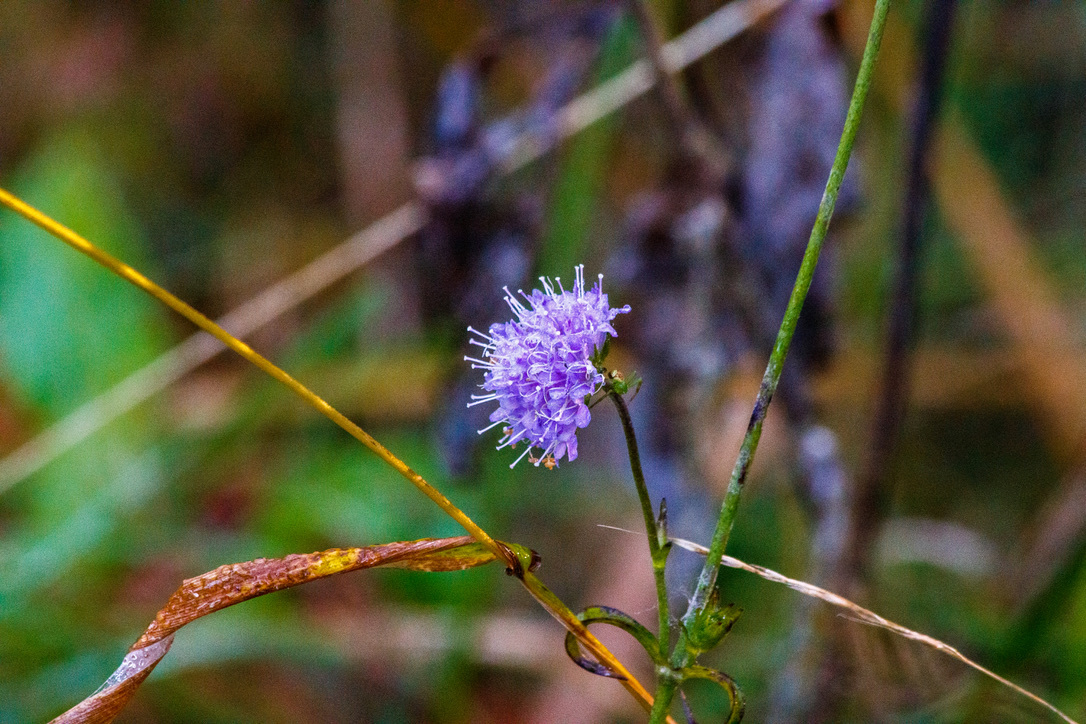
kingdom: Plantae
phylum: Tracheophyta
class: Magnoliopsida
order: Dipsacales
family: Caprifoliaceae
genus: Succisa
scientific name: Succisa pratensis
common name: Devil's-bit
